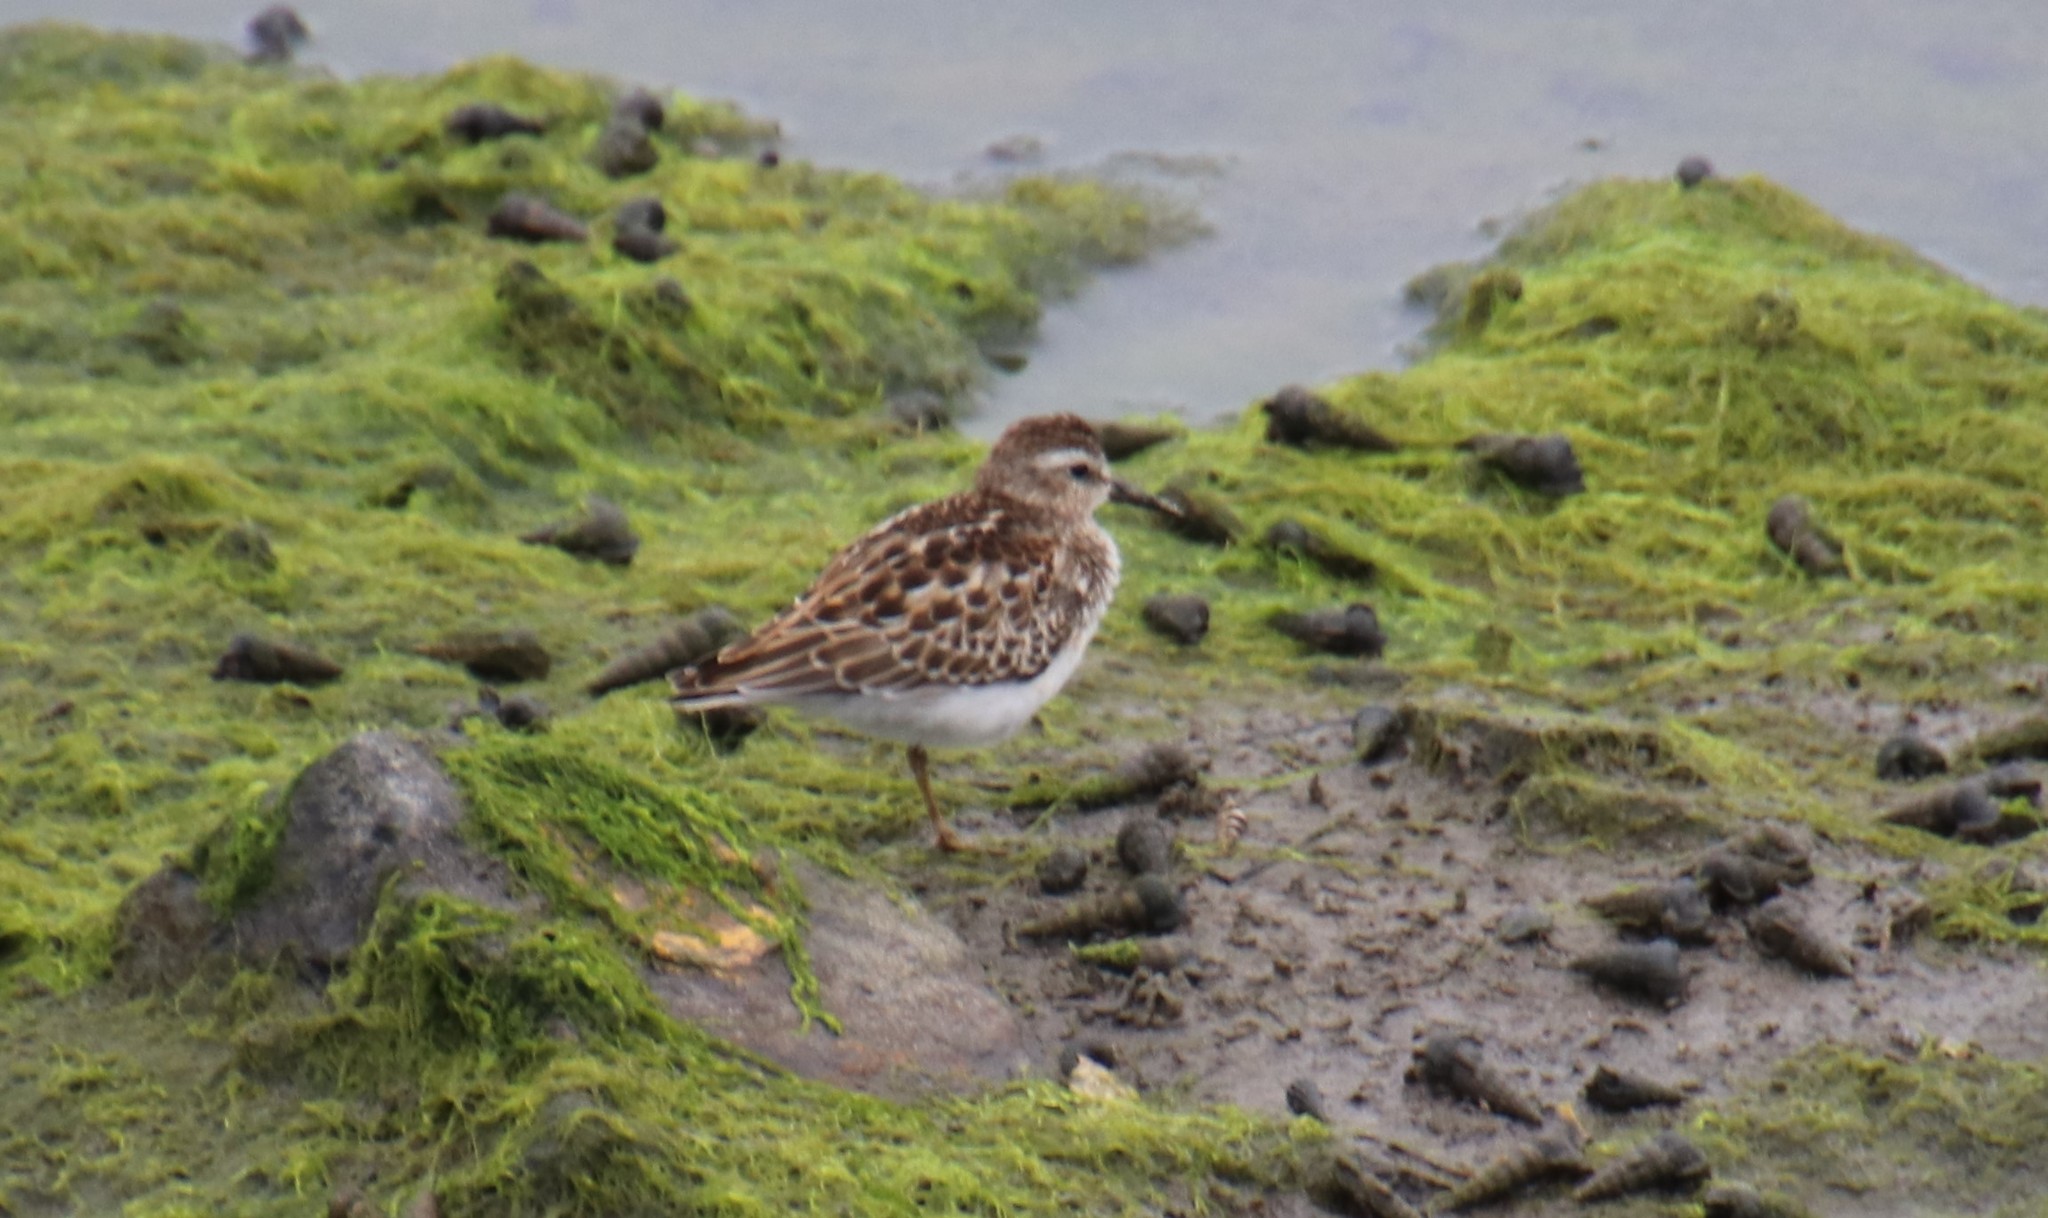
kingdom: Animalia
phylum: Chordata
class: Aves
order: Charadriiformes
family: Scolopacidae
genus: Calidris
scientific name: Calidris minutilla
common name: Least sandpiper
